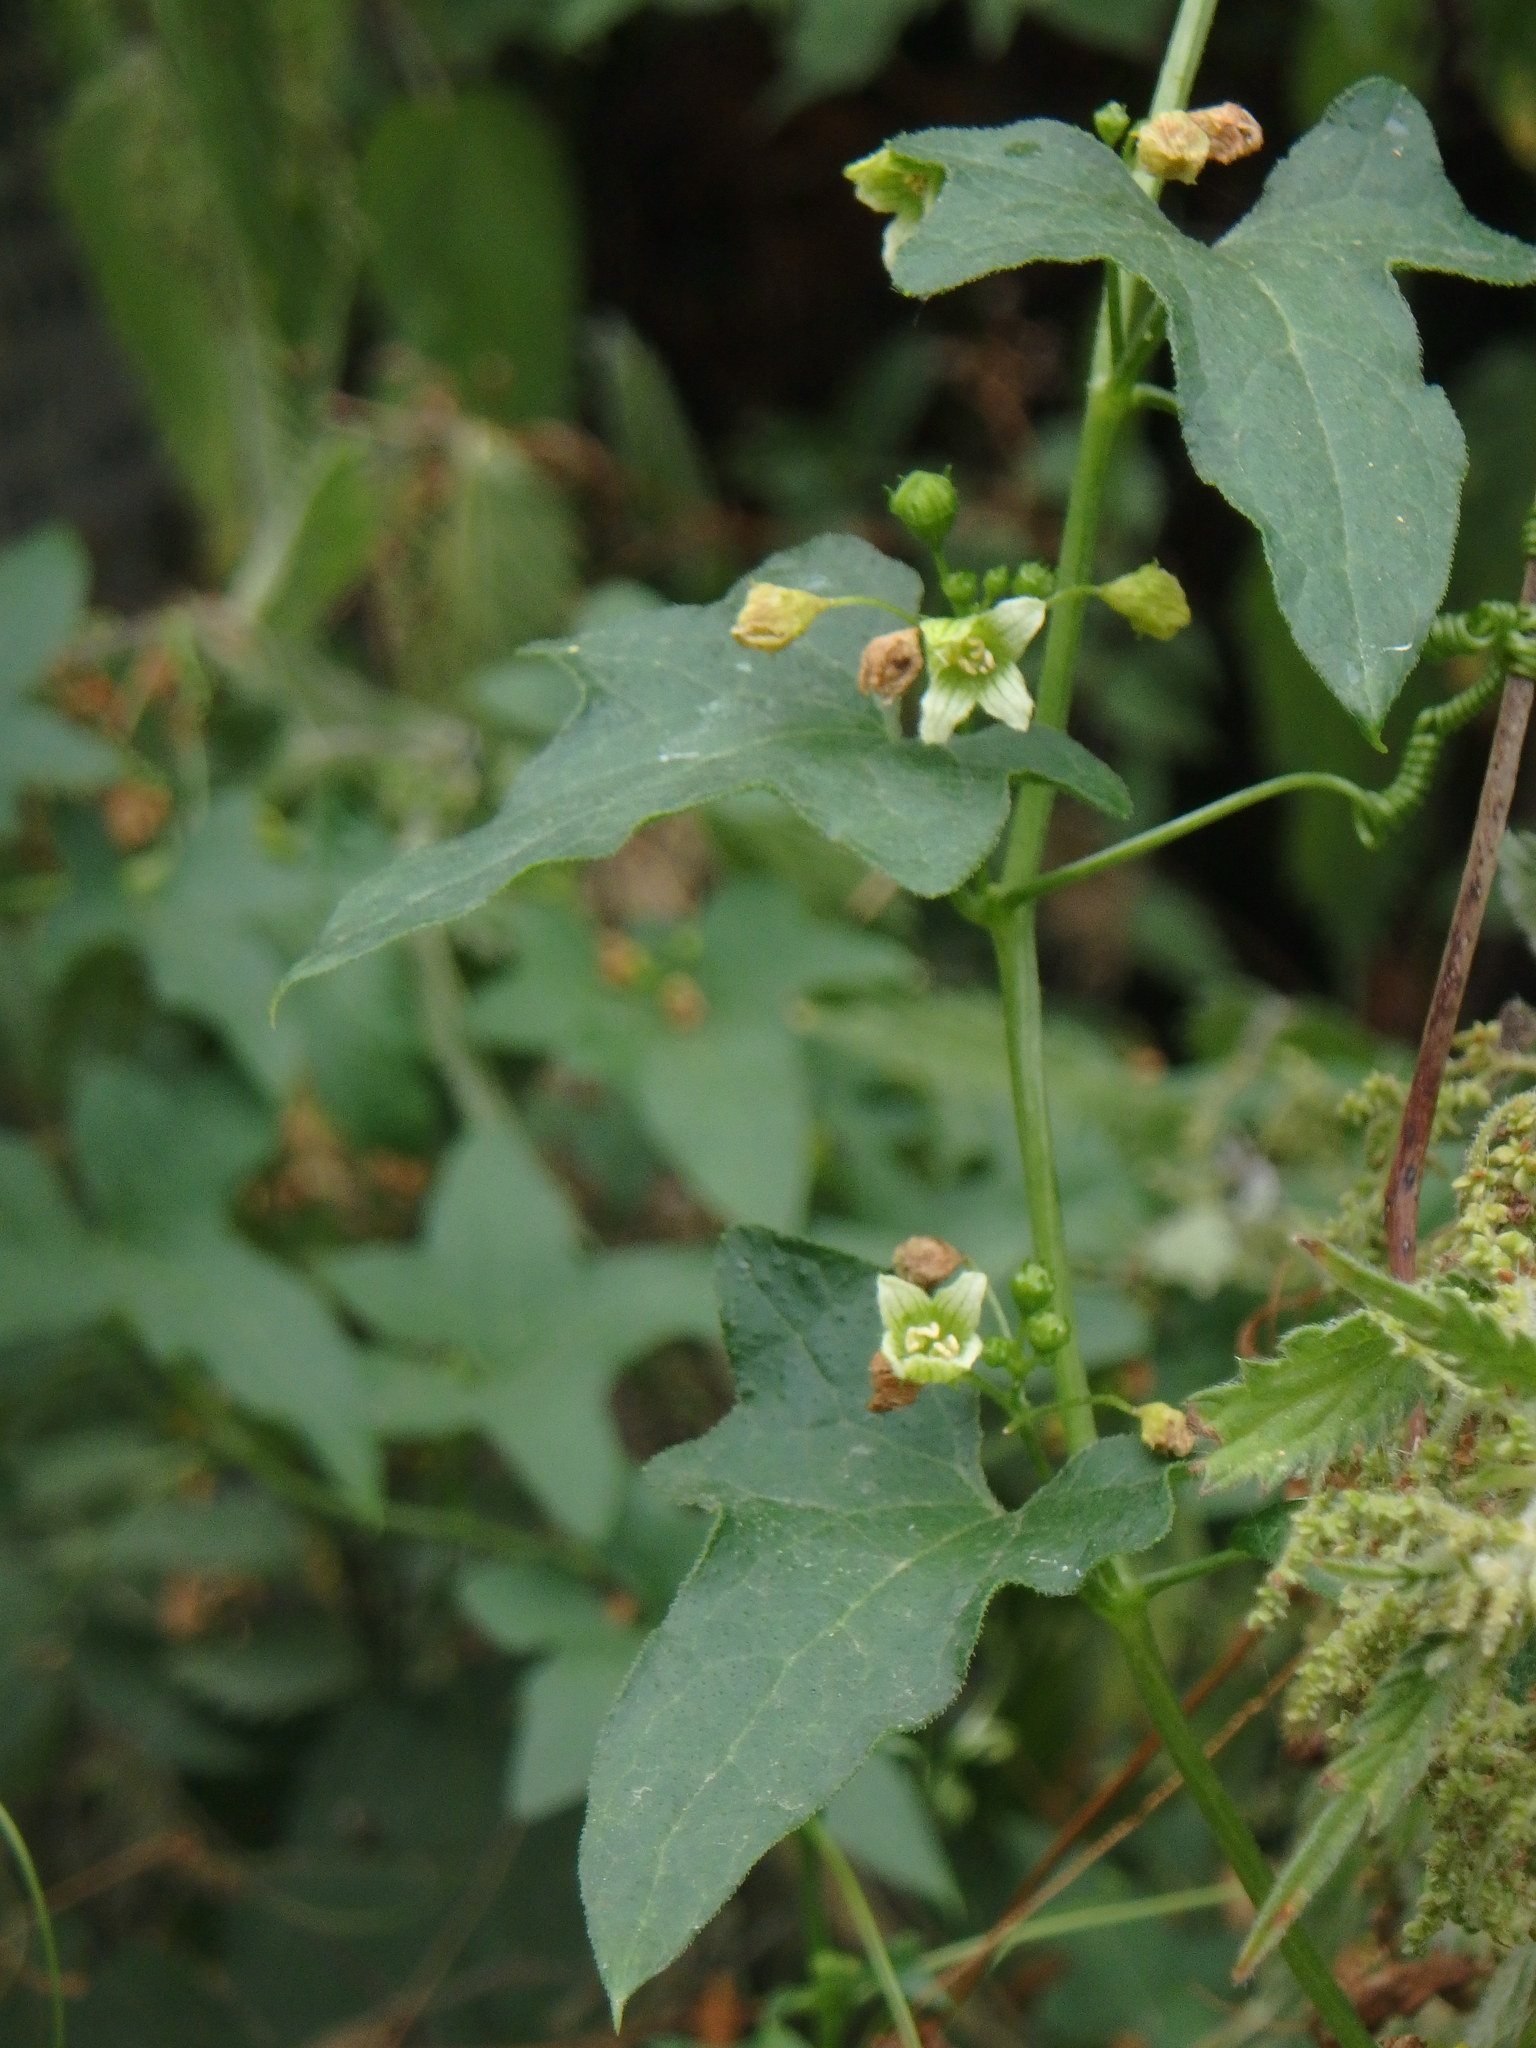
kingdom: Plantae
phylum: Tracheophyta
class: Magnoliopsida
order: Cucurbitales
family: Cucurbitaceae
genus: Bryonia
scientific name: Bryonia cretica
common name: Cretan bryony
